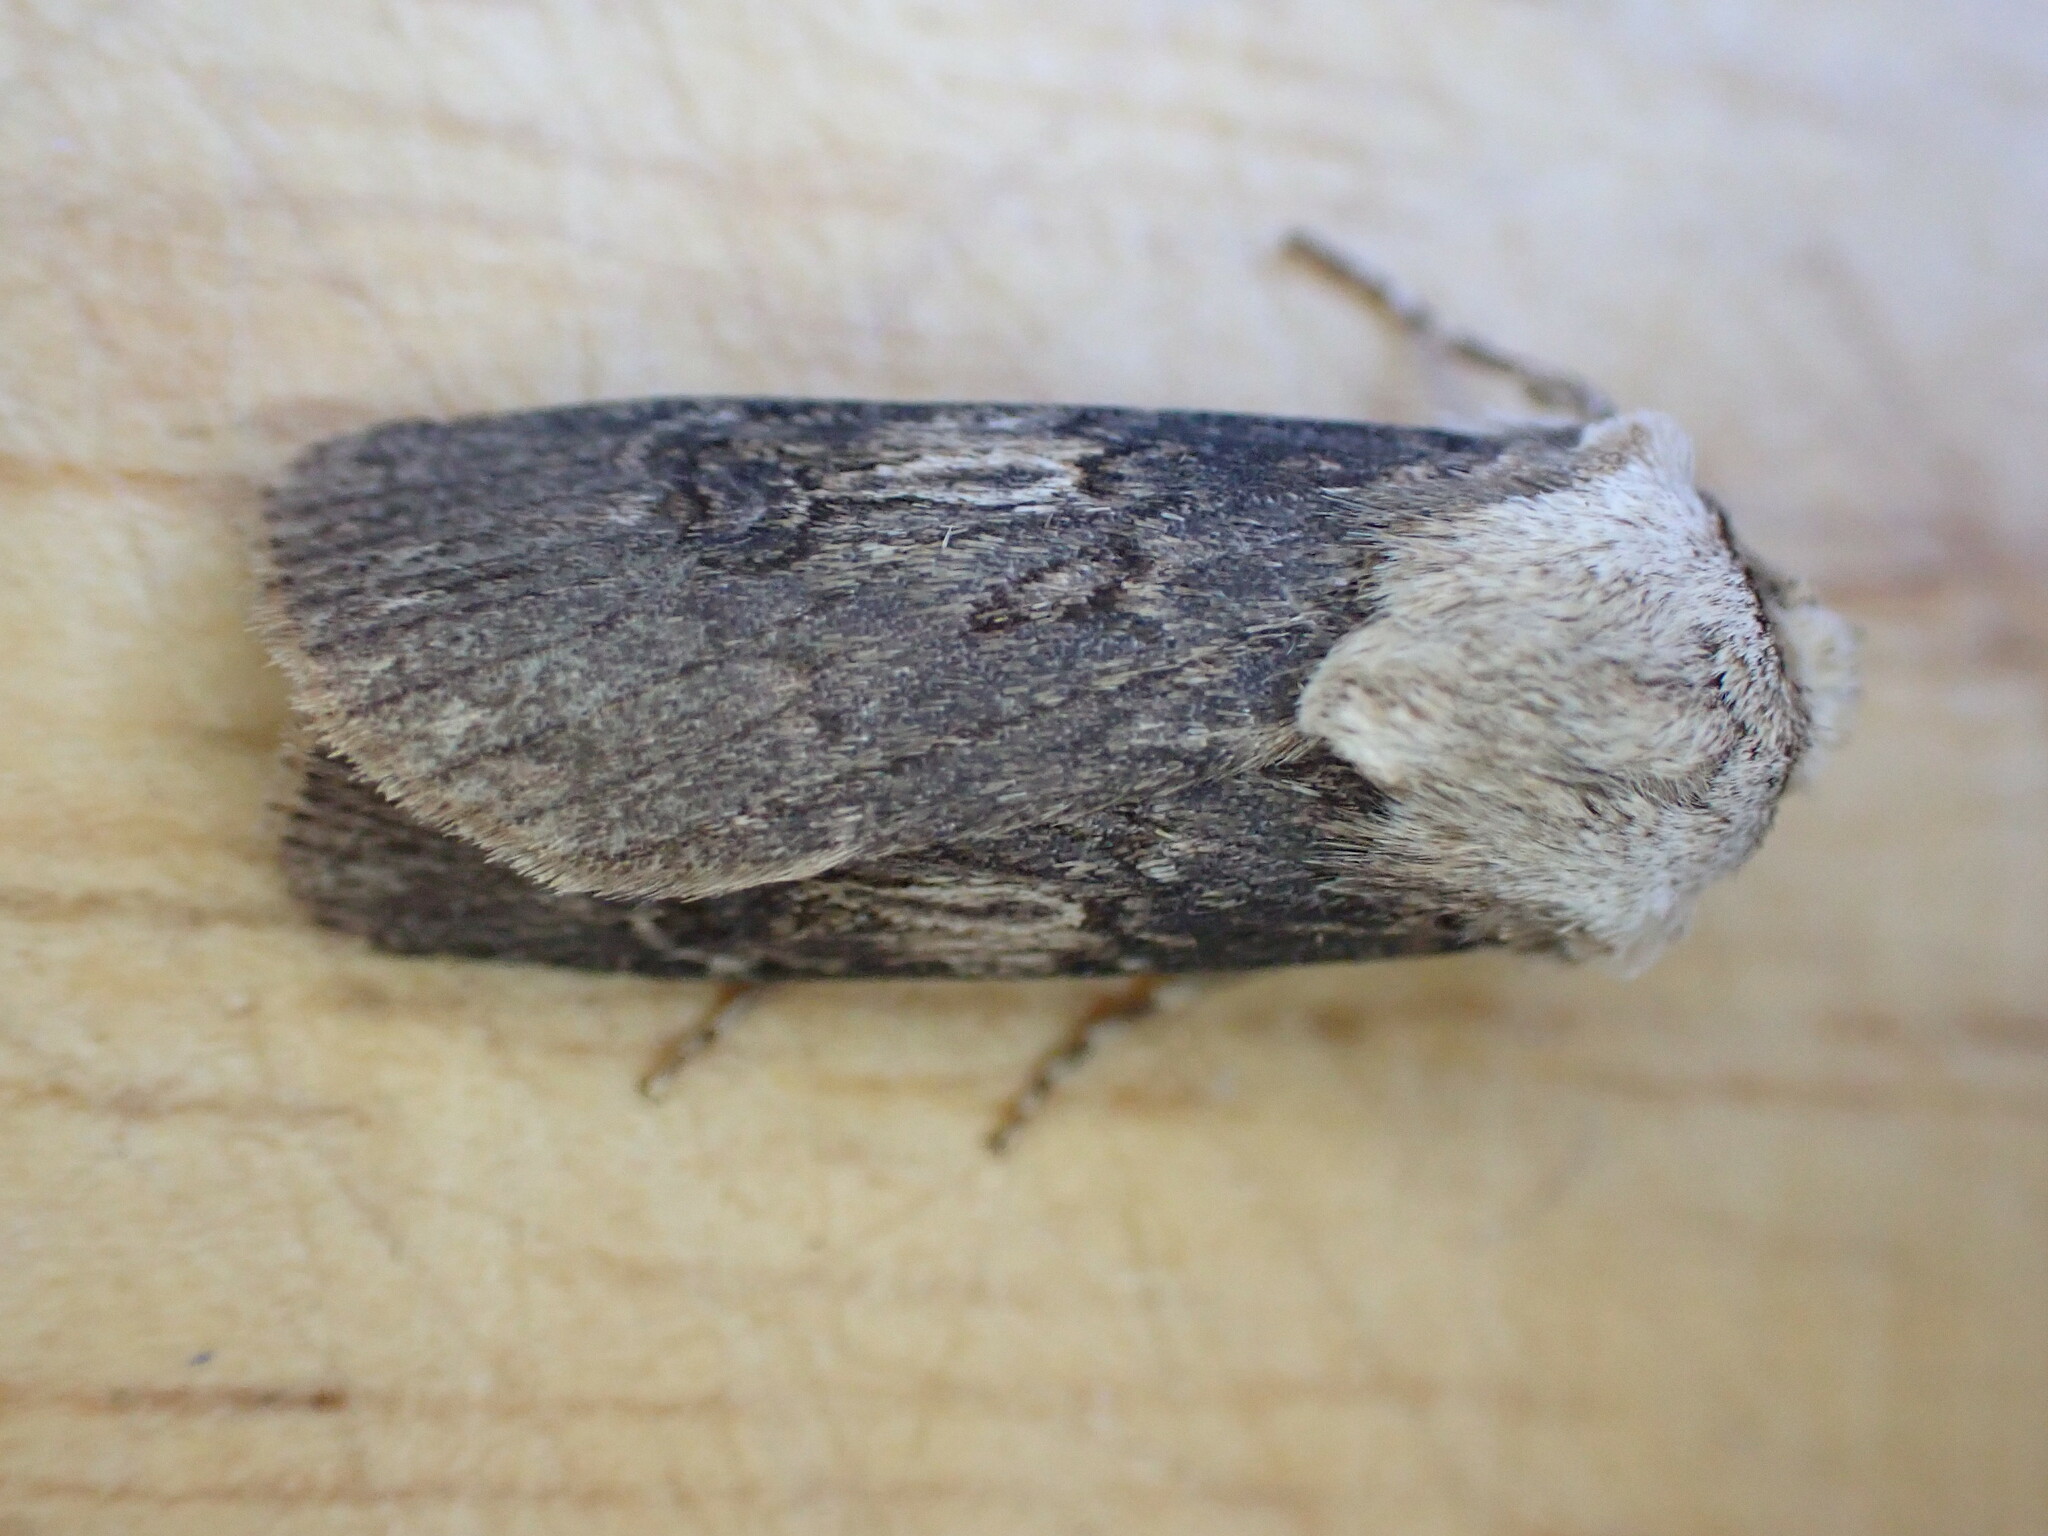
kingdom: Animalia
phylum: Arthropoda
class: Insecta
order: Lepidoptera
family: Noctuidae
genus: Agrotis
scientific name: Agrotis puta
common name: Shuttle-shaped dart
